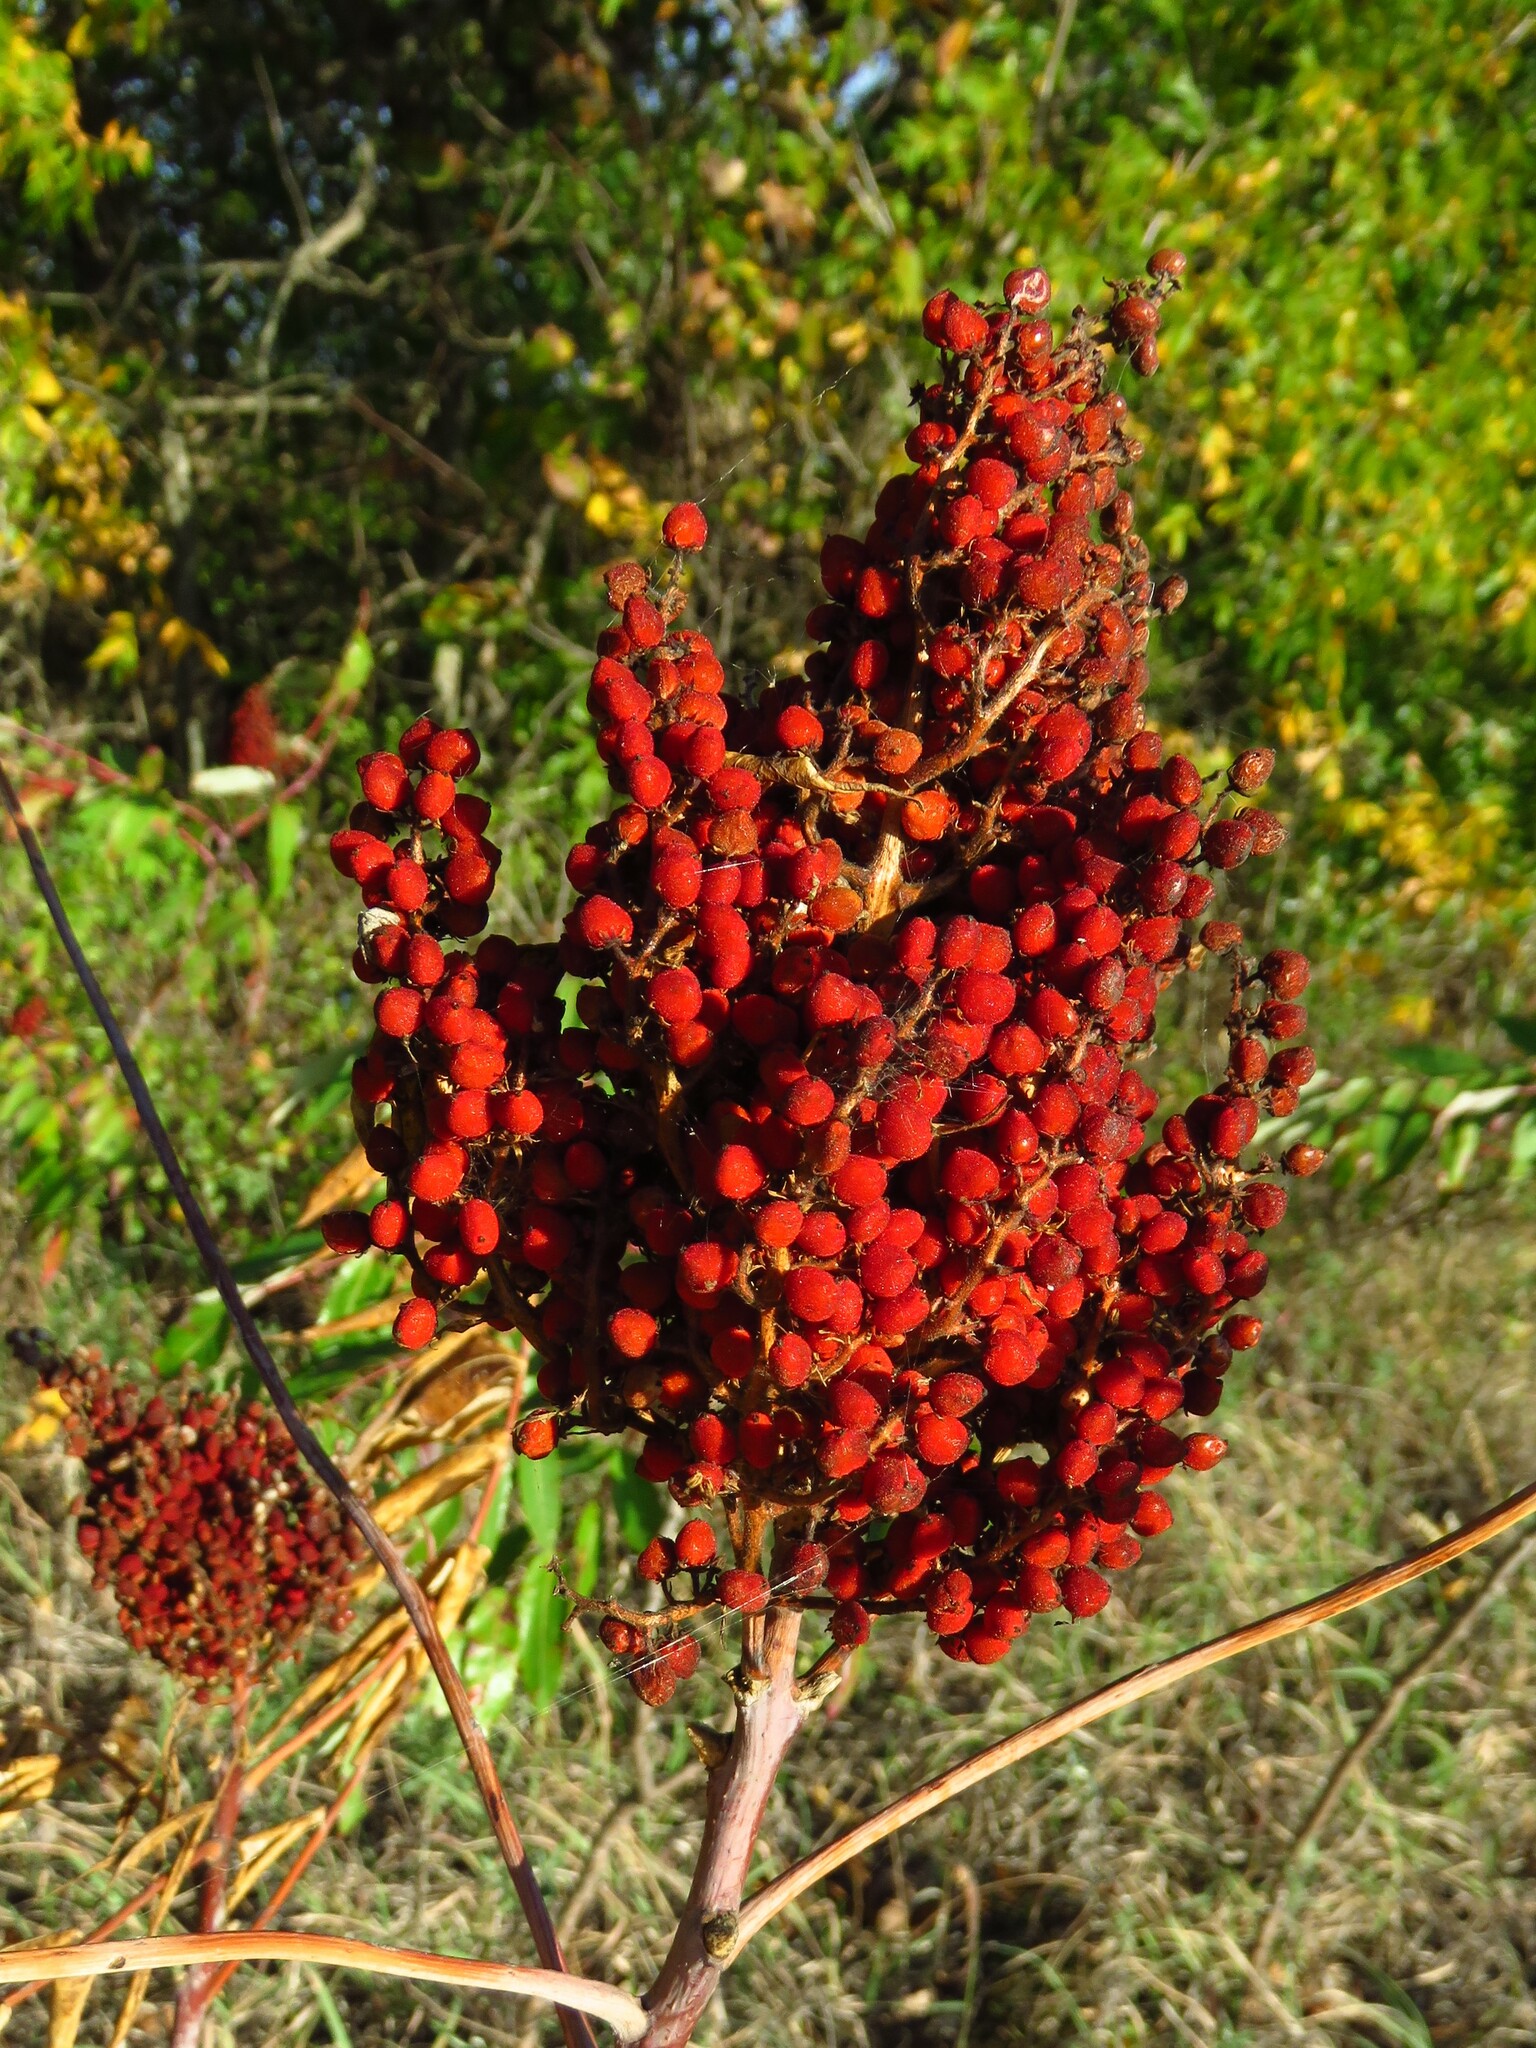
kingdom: Plantae
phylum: Tracheophyta
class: Magnoliopsida
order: Sapindales
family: Anacardiaceae
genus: Rhus
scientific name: Rhus glabra
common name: Scarlet sumac
